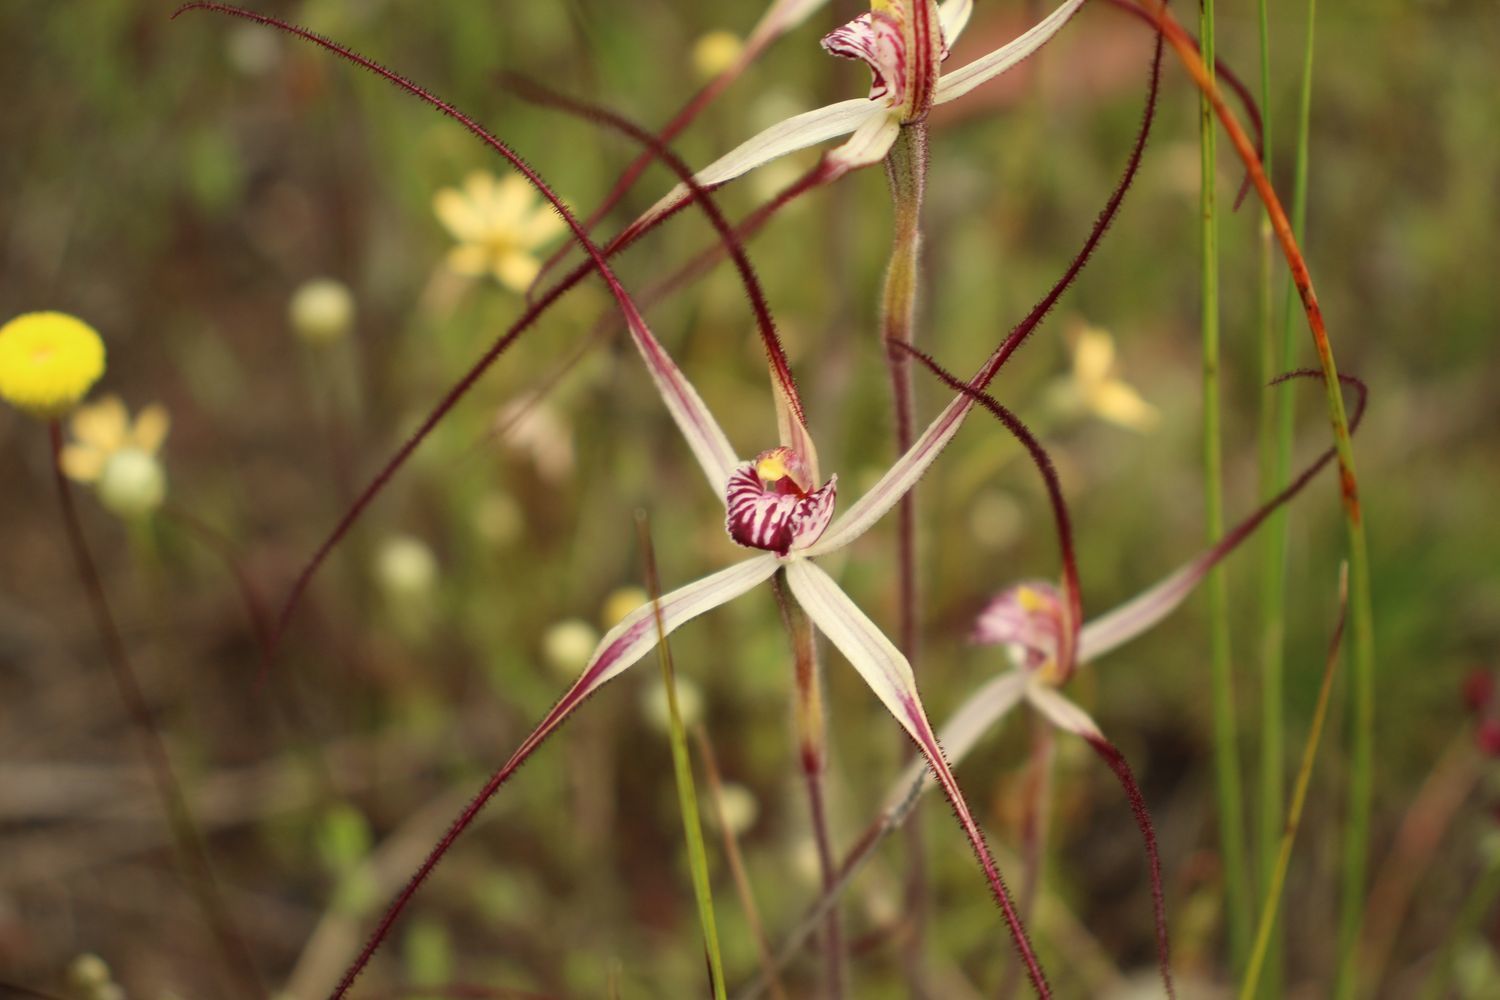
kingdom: Plantae
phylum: Tracheophyta
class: Liliopsida
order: Asparagales
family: Orchidaceae
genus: Caladenia
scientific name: Caladenia pulchra
